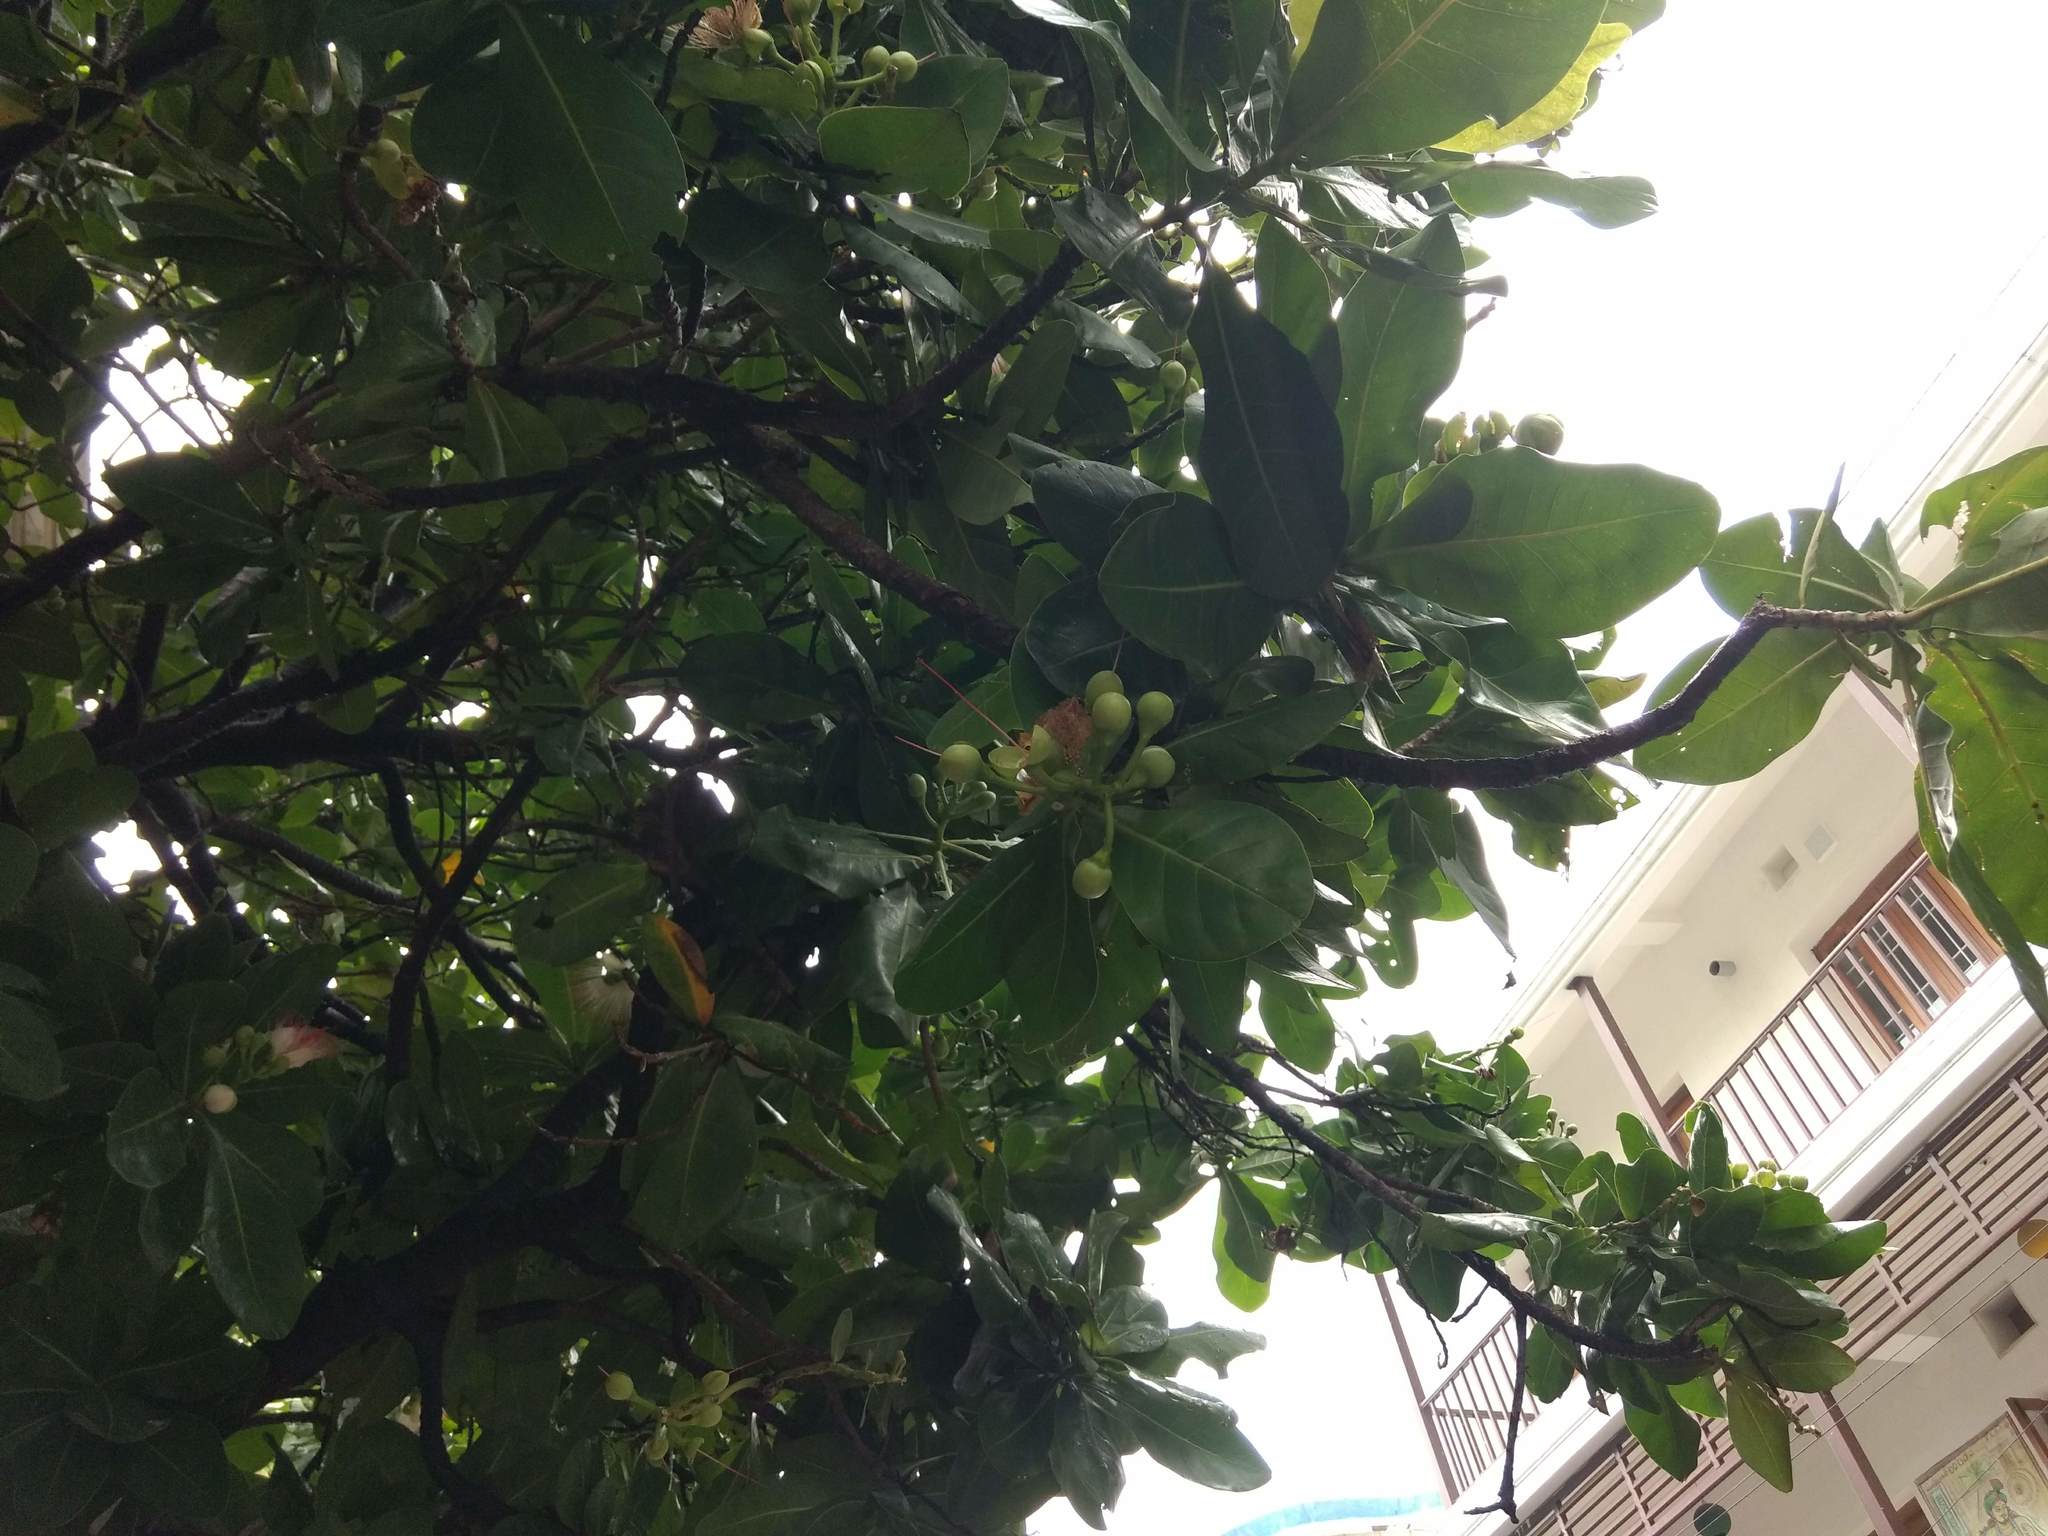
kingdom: Plantae
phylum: Tracheophyta
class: Magnoliopsida
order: Ericales
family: Lecythidaceae
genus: Barringtonia
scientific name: Barringtonia asiatica
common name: Mango-pine
